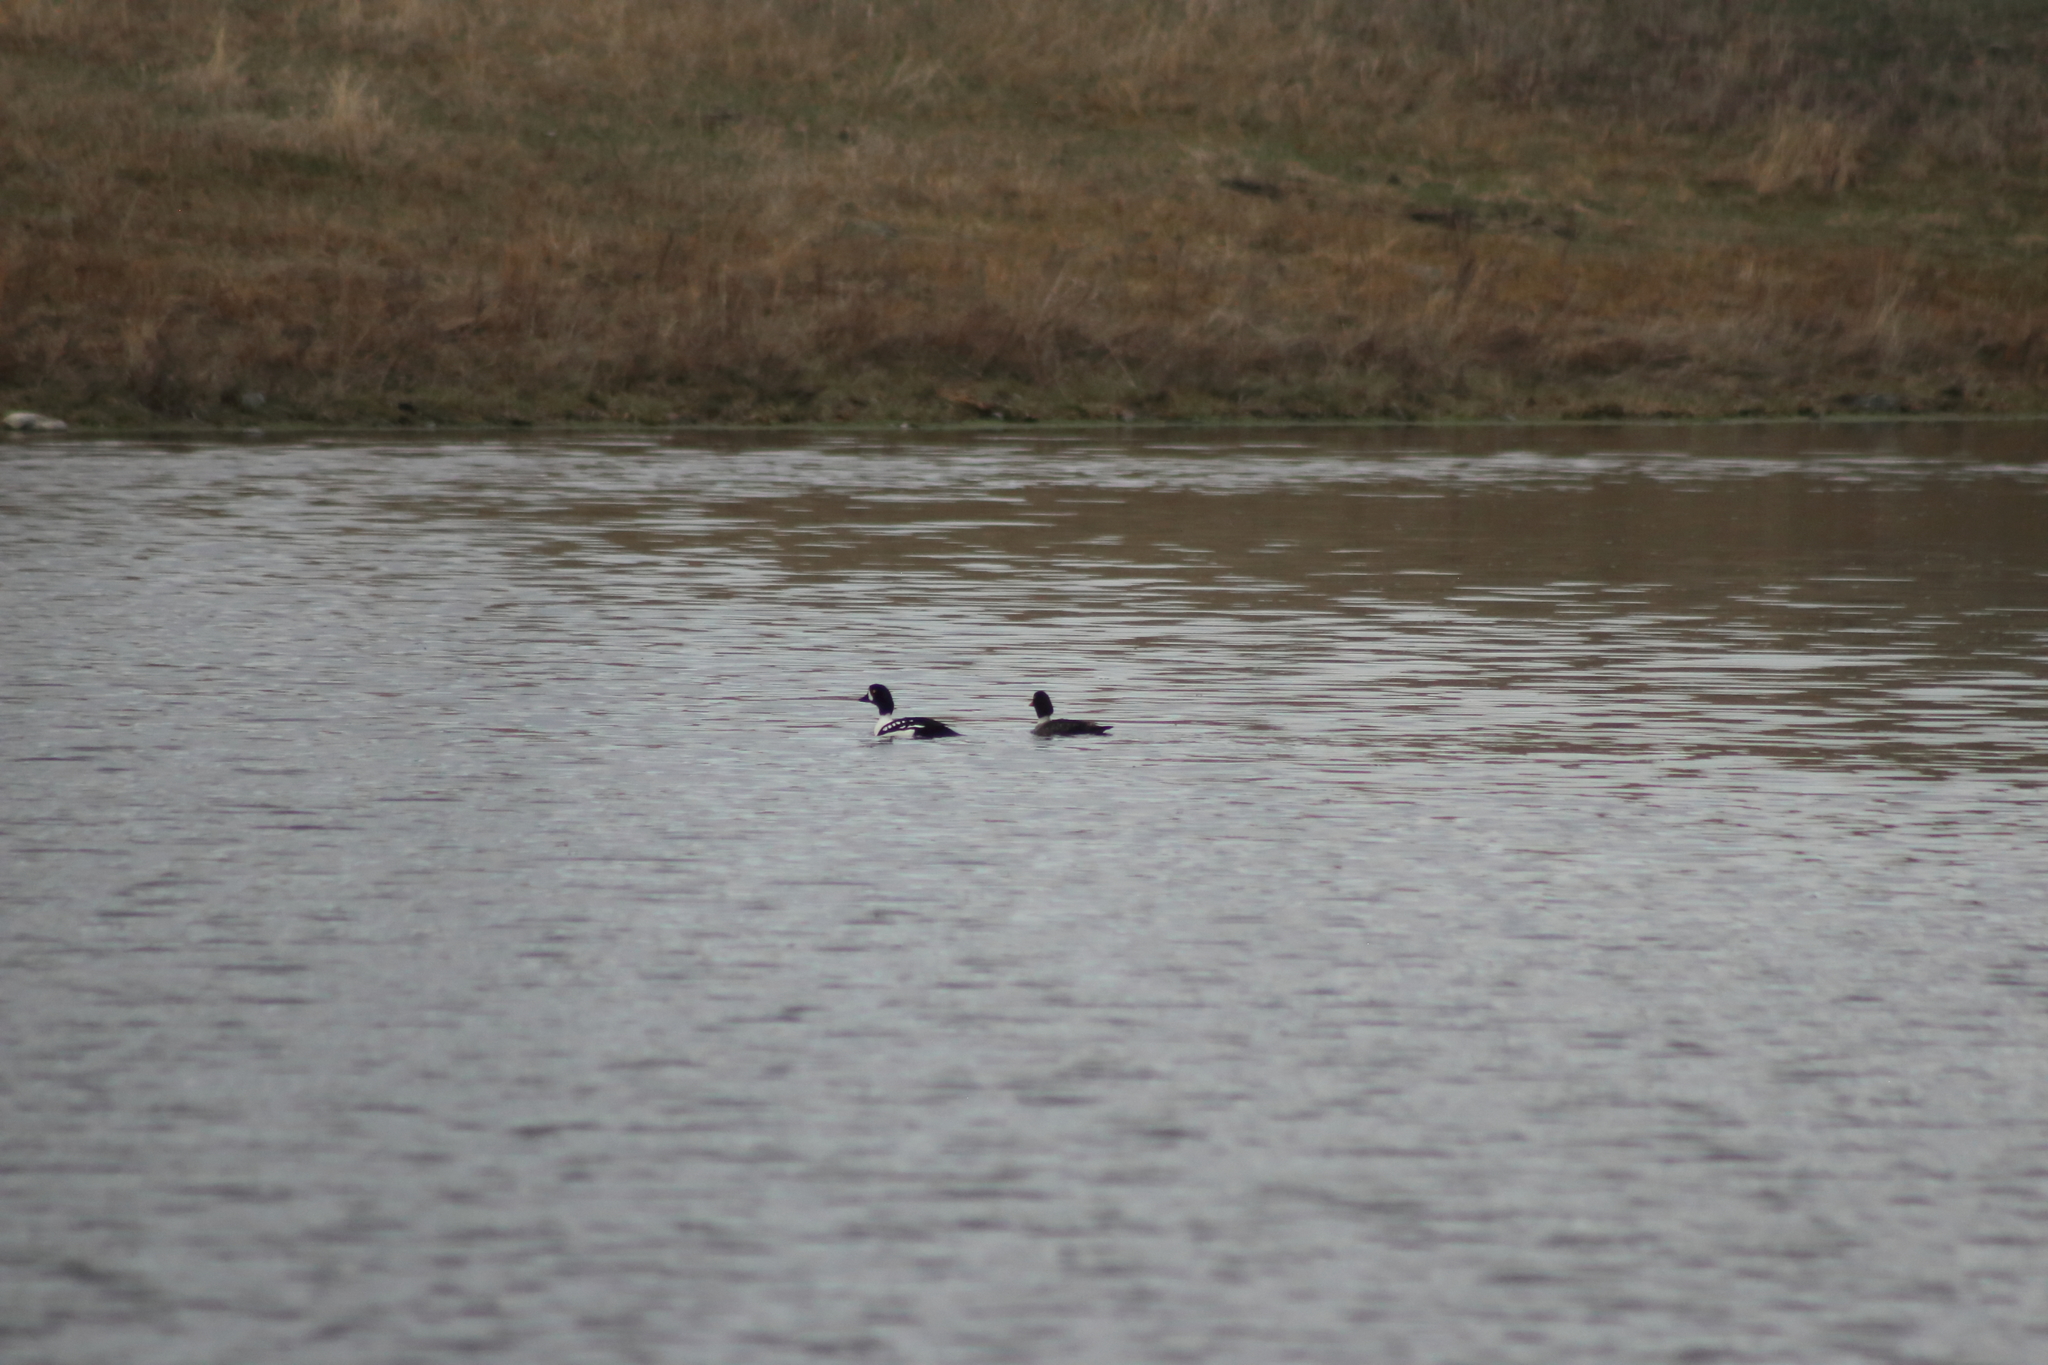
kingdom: Animalia
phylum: Chordata
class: Aves
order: Anseriformes
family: Anatidae
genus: Bucephala
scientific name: Bucephala islandica
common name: Barrow's goldeneye
